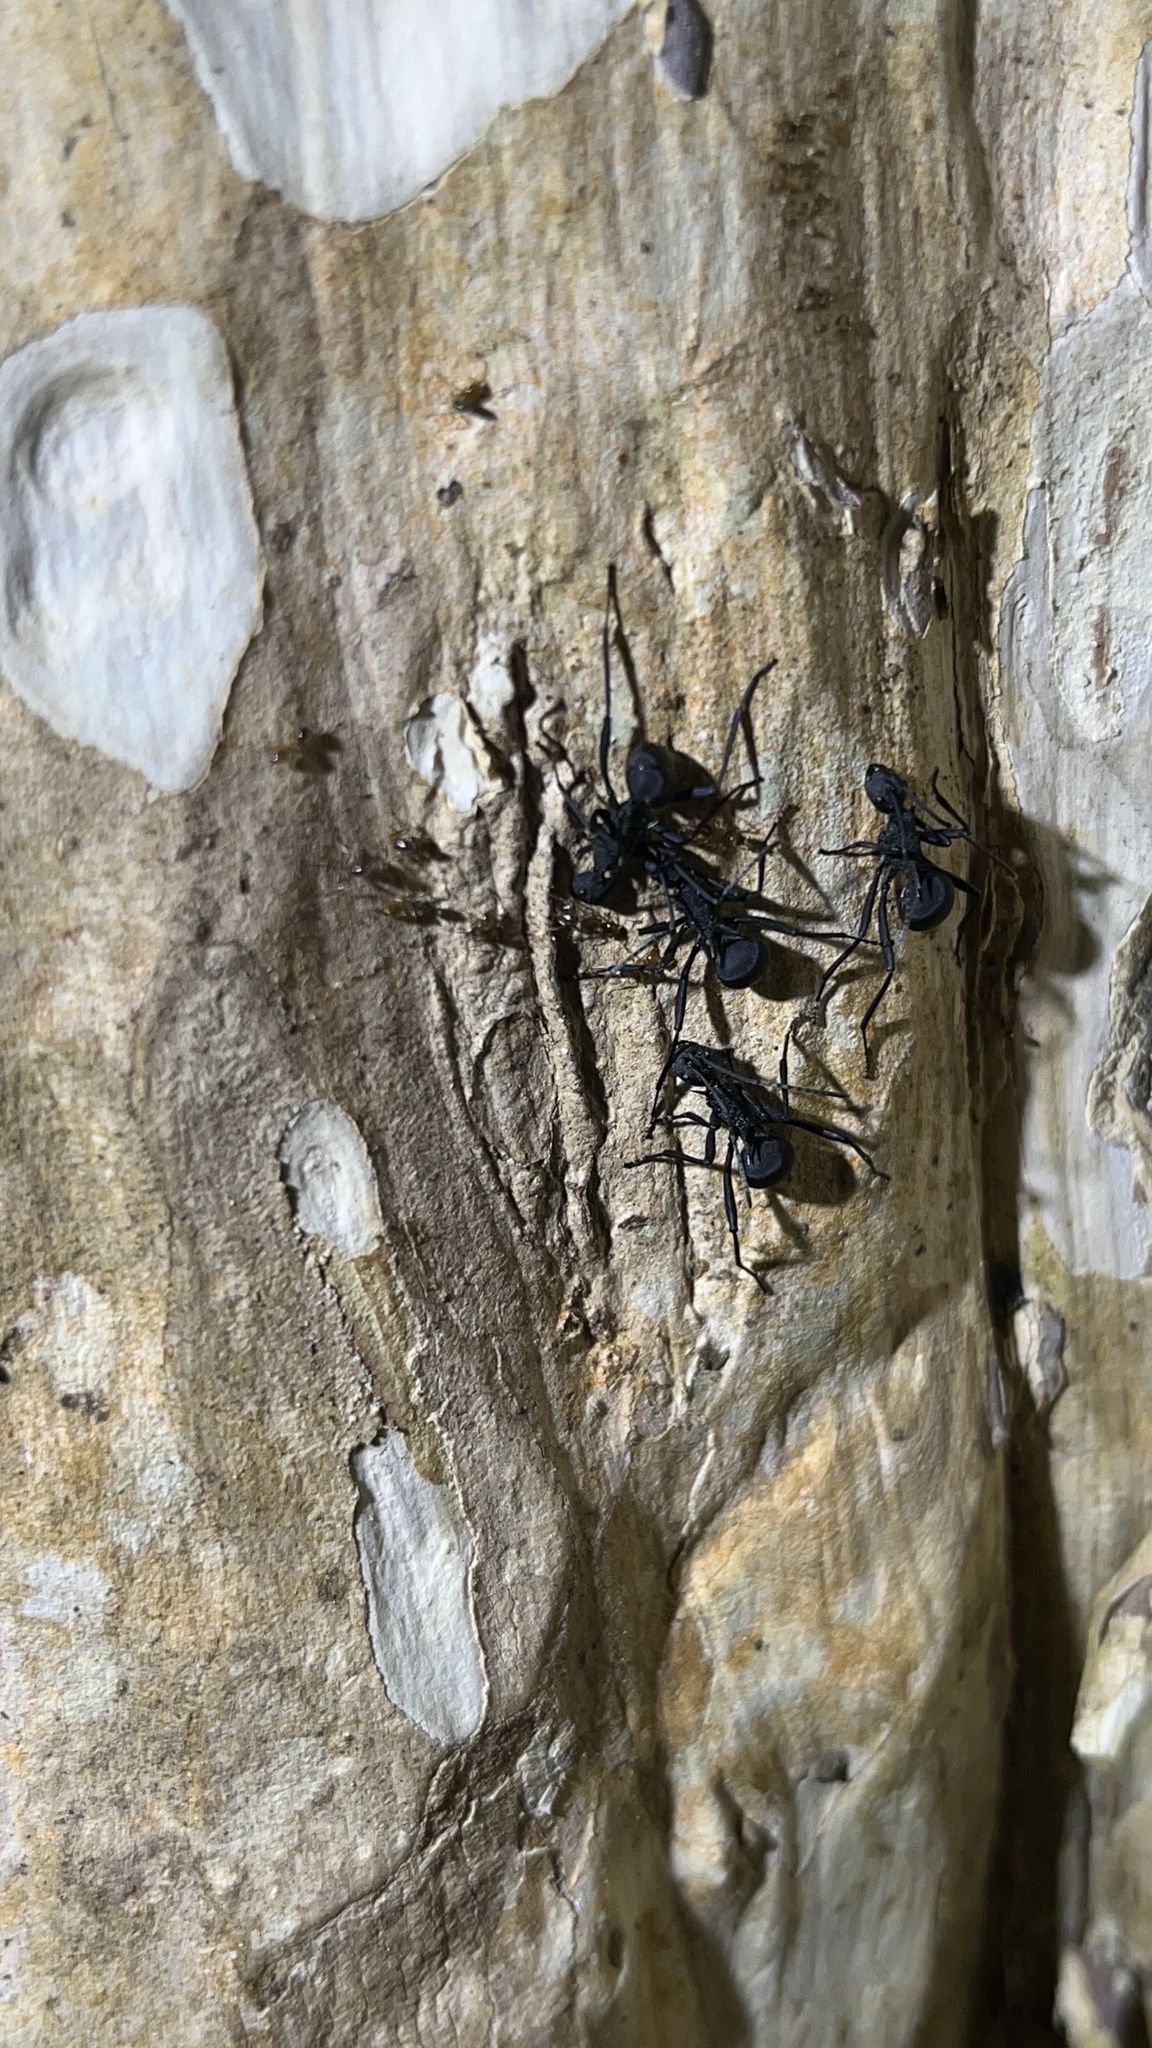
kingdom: Animalia
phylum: Arthropoda
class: Insecta
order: Hymenoptera
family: Formicidae
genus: Polyrhachis
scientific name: Polyrhachis armata
